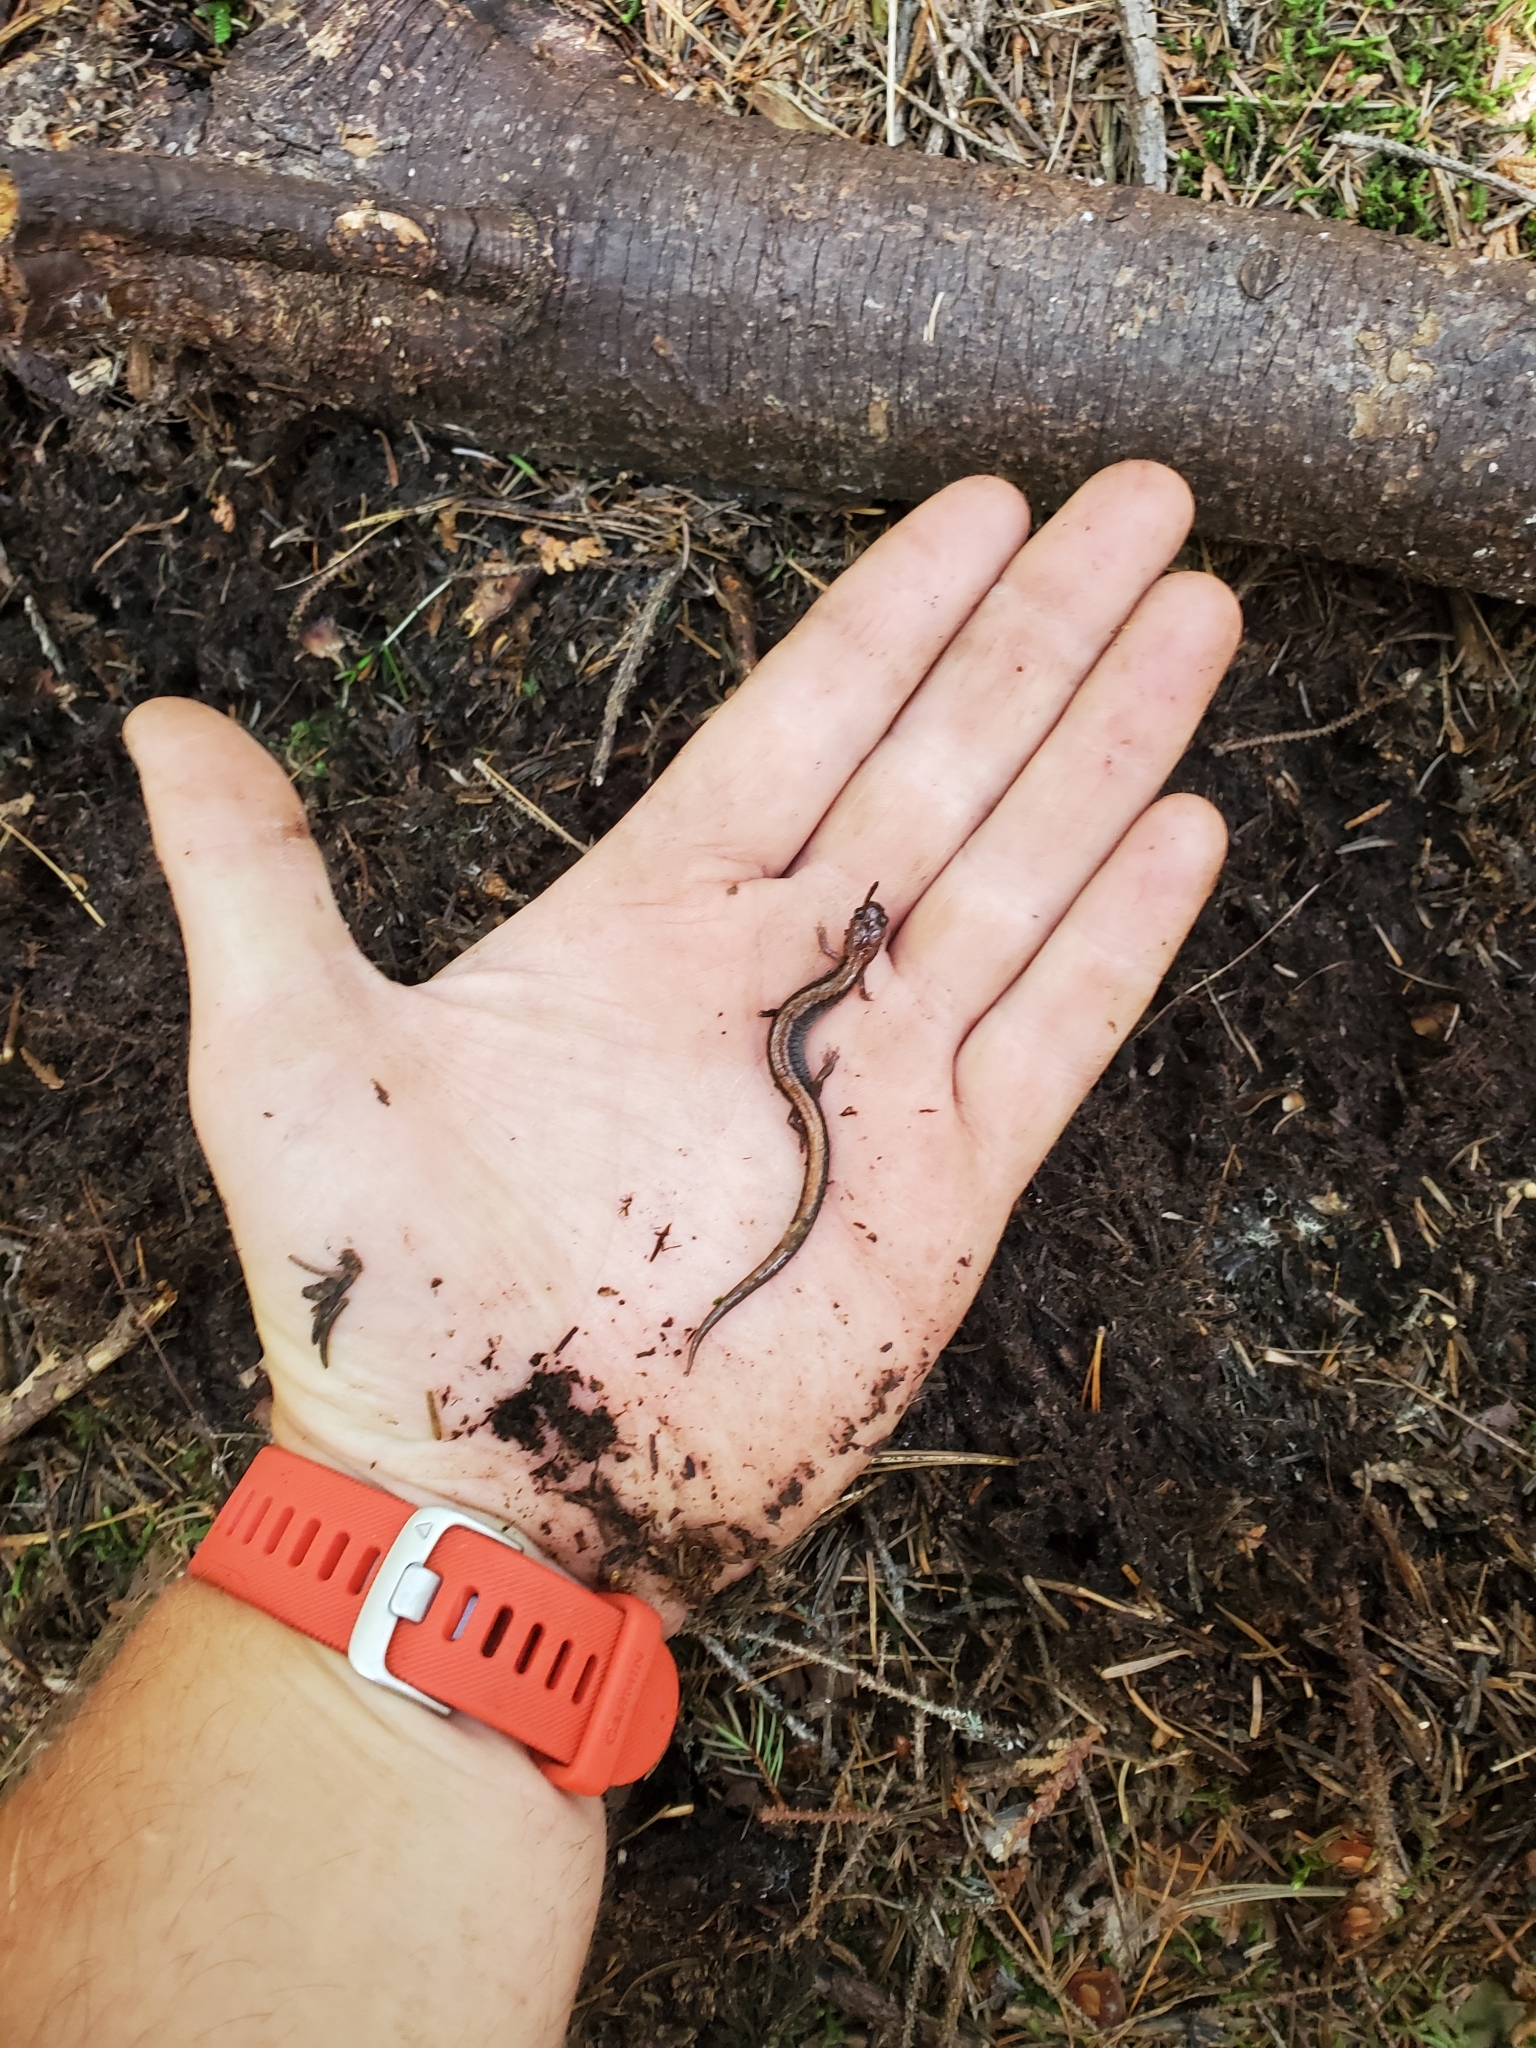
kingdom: Animalia
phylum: Chordata
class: Amphibia
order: Caudata
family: Plethodontidae
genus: Plethodon
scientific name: Plethodon cinereus
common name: Redback salamander
